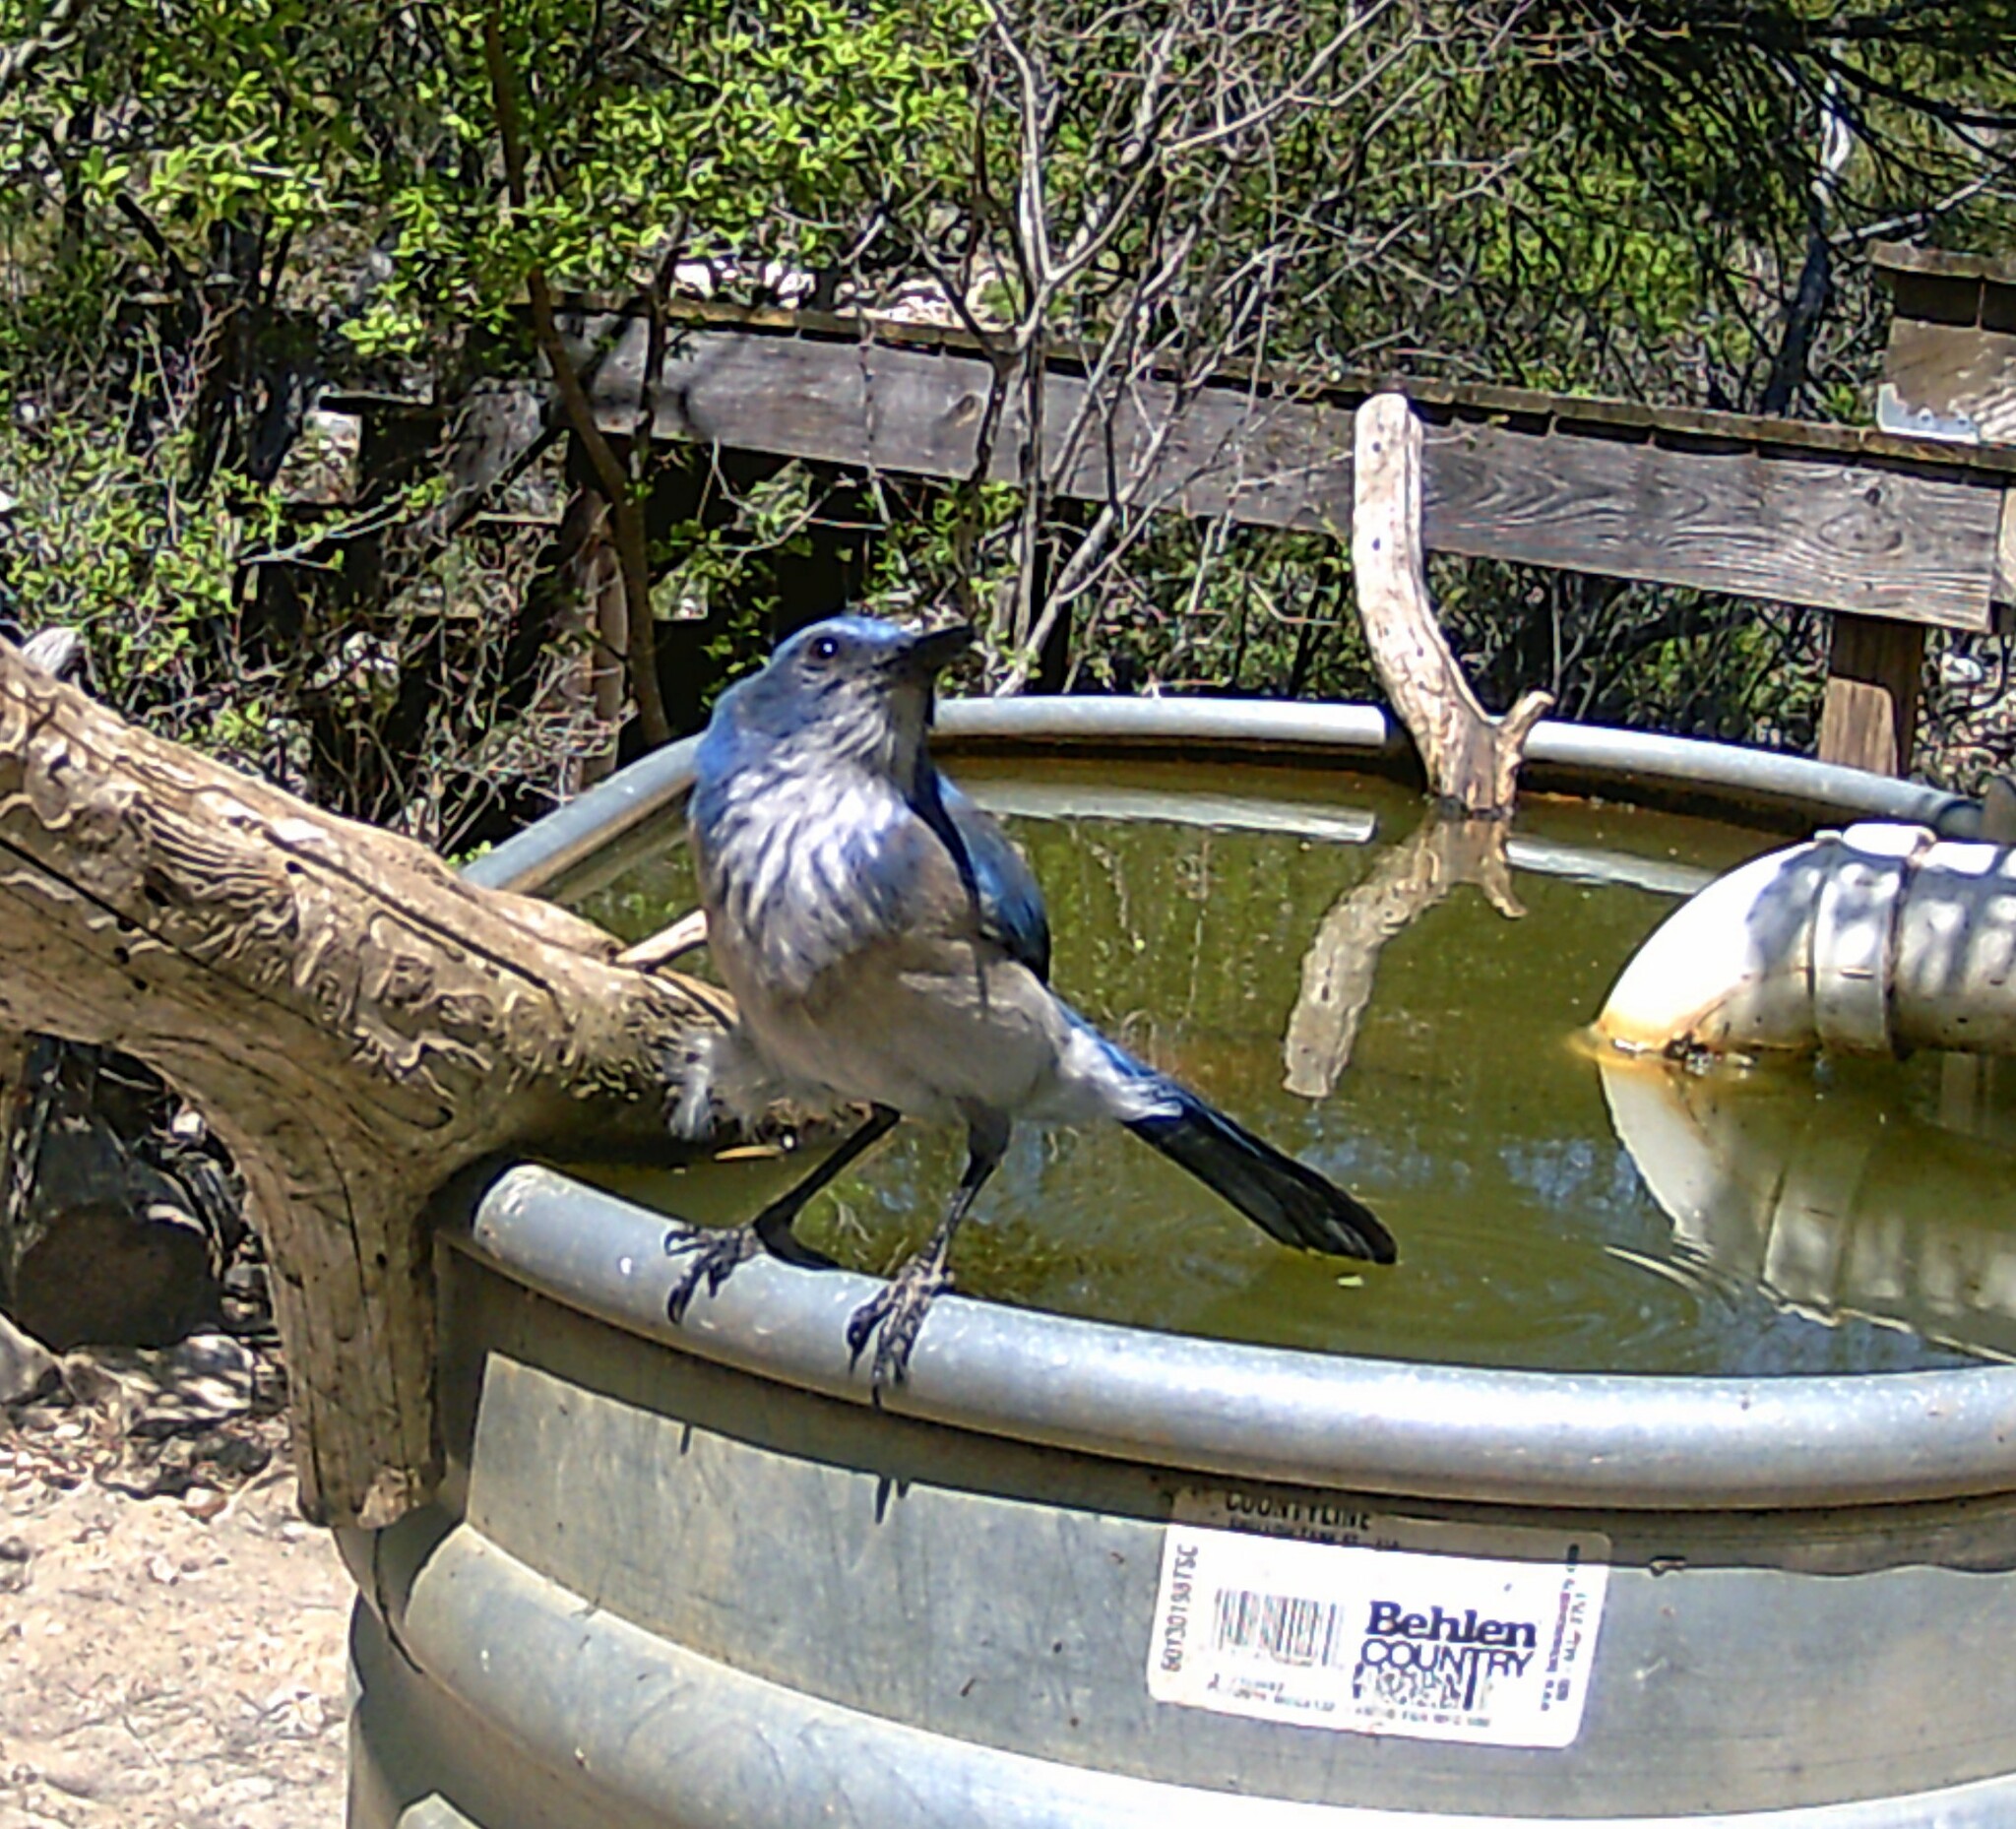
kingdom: Animalia
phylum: Chordata
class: Aves
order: Passeriformes
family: Corvidae
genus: Aphelocoma
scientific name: Aphelocoma woodhouseii
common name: Woodhouse's scrub-jay
